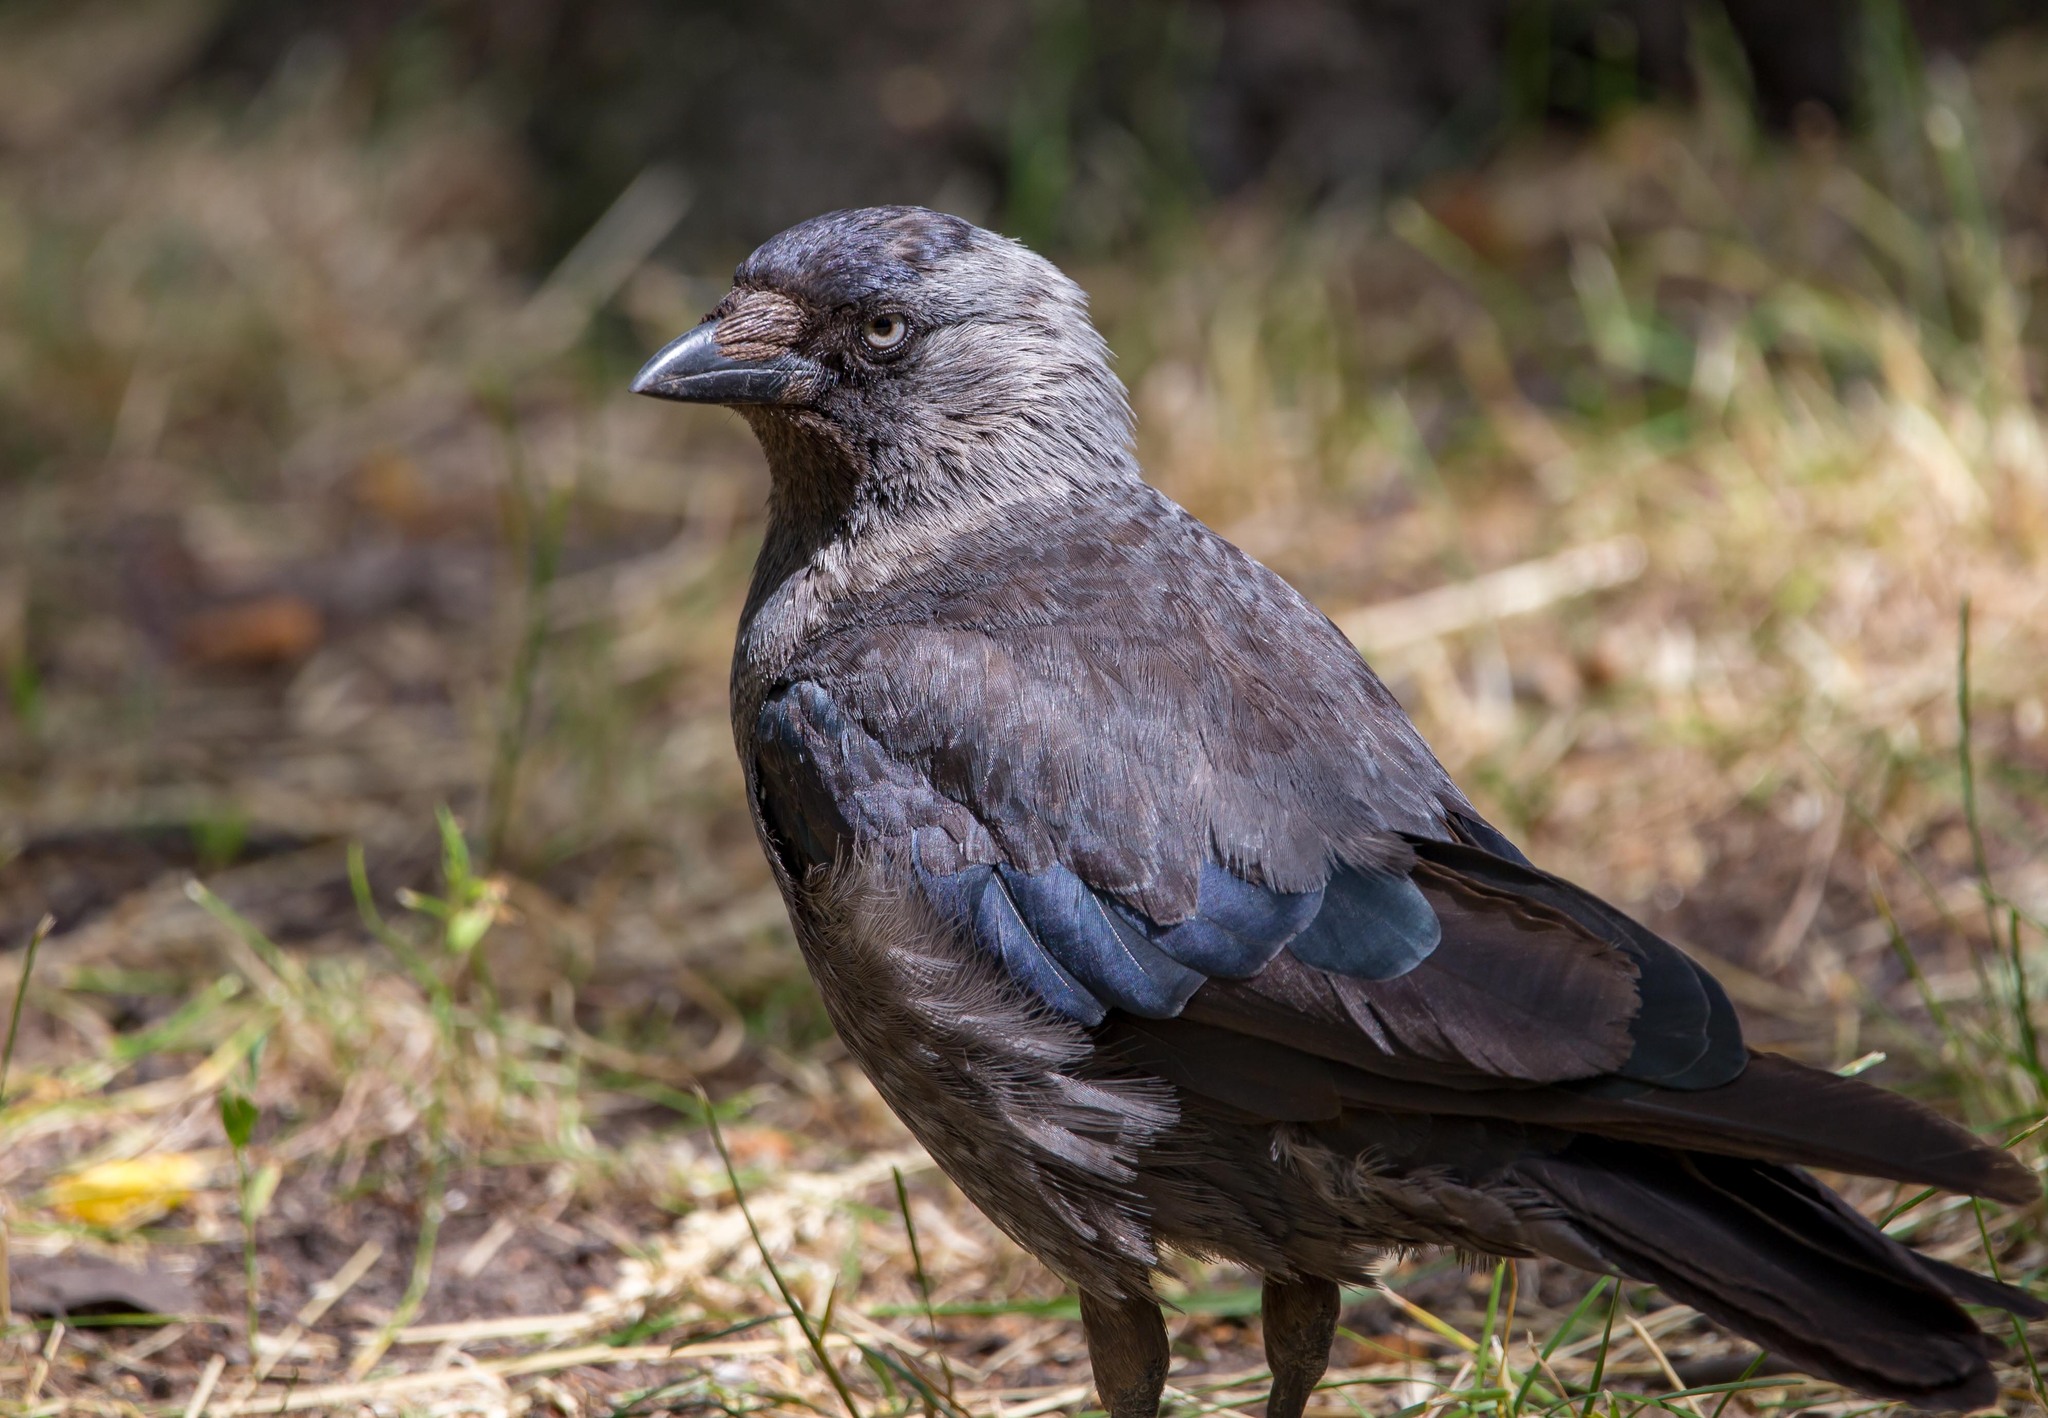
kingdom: Animalia
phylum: Chordata
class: Aves
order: Passeriformes
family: Corvidae
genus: Coloeus
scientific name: Coloeus monedula
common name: Western jackdaw
